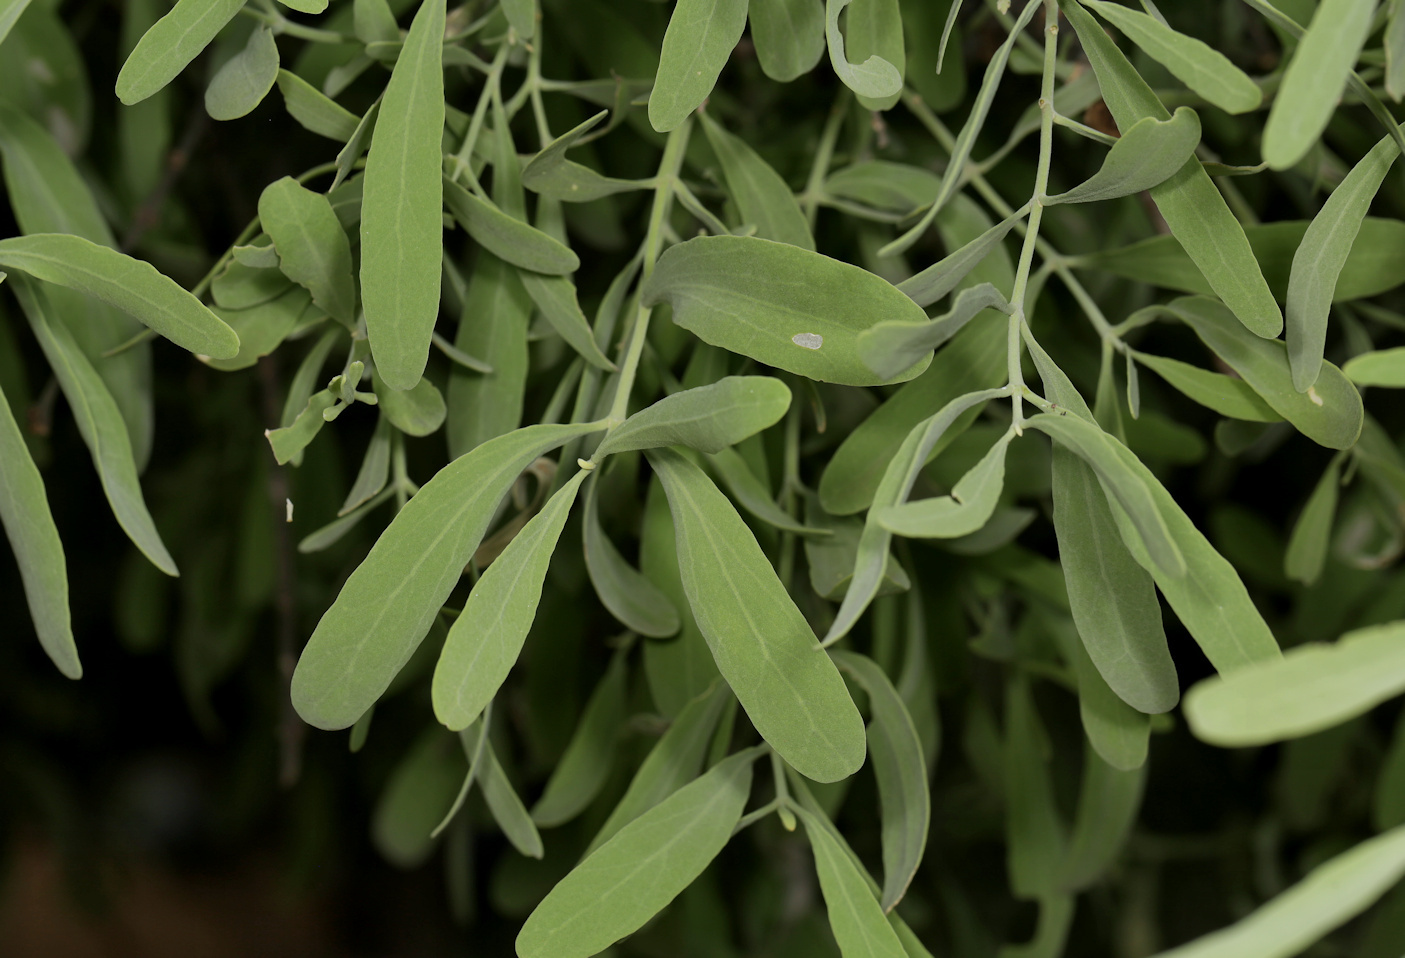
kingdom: Plantae
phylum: Tracheophyta
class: Magnoliopsida
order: Brassicales
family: Salvadoraceae
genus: Salvadora
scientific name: Salvadora australis
